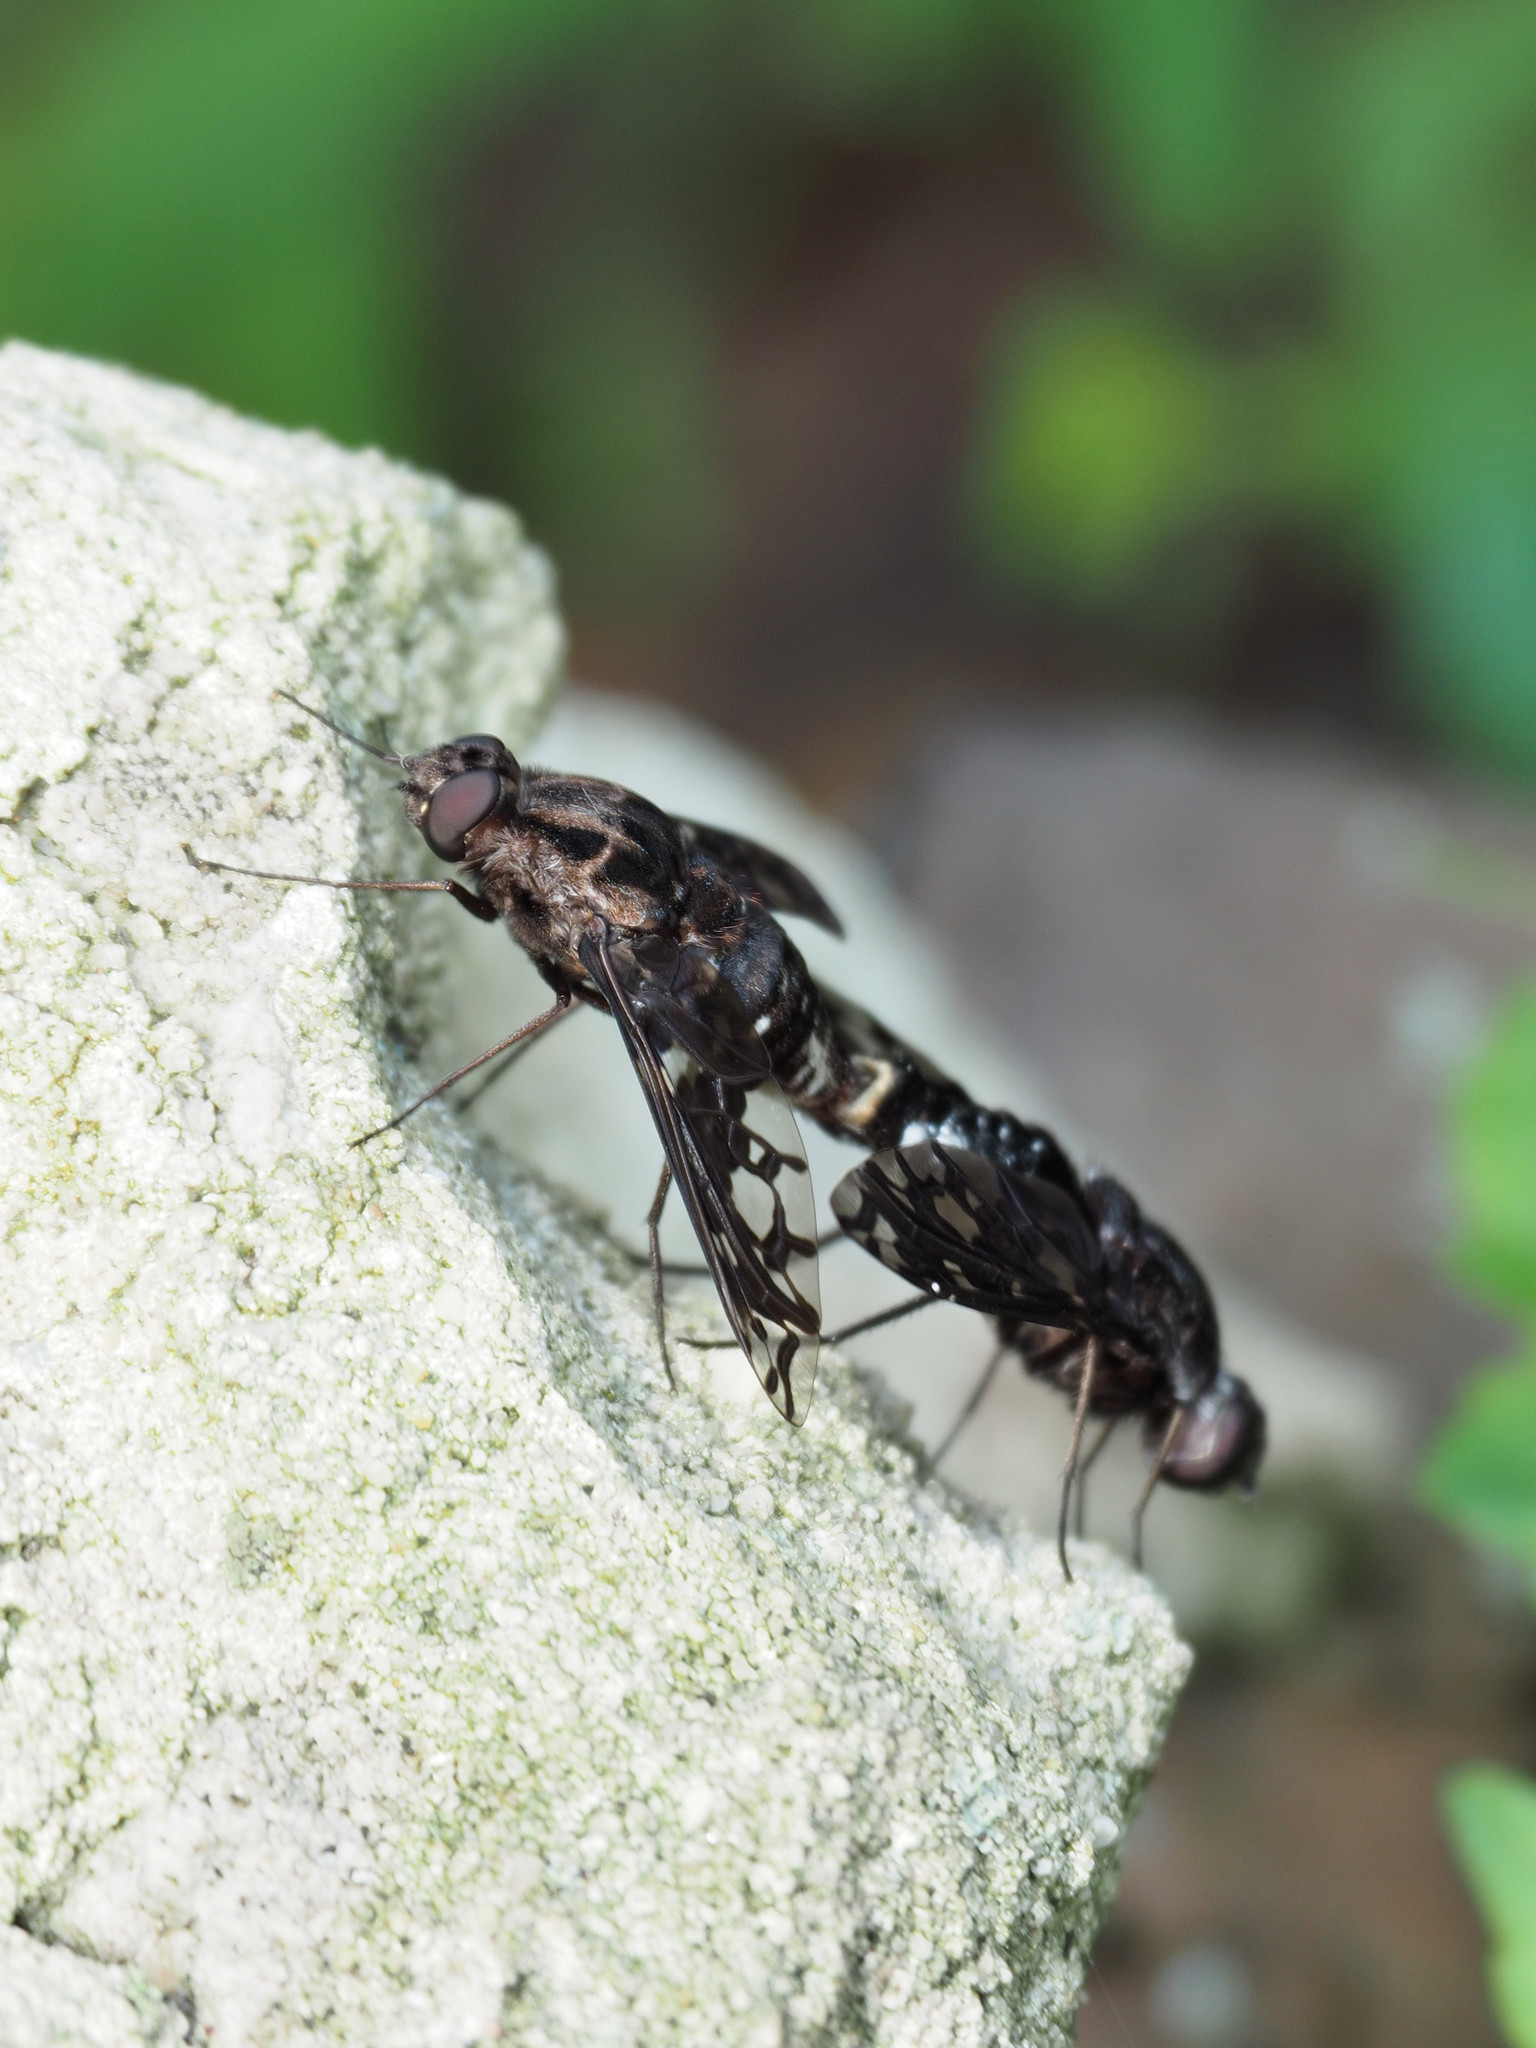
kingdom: Animalia
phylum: Arthropoda
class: Insecta
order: Diptera
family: Bombyliidae
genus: Xenox
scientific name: Xenox tigrinus
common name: Tiger bee fly
